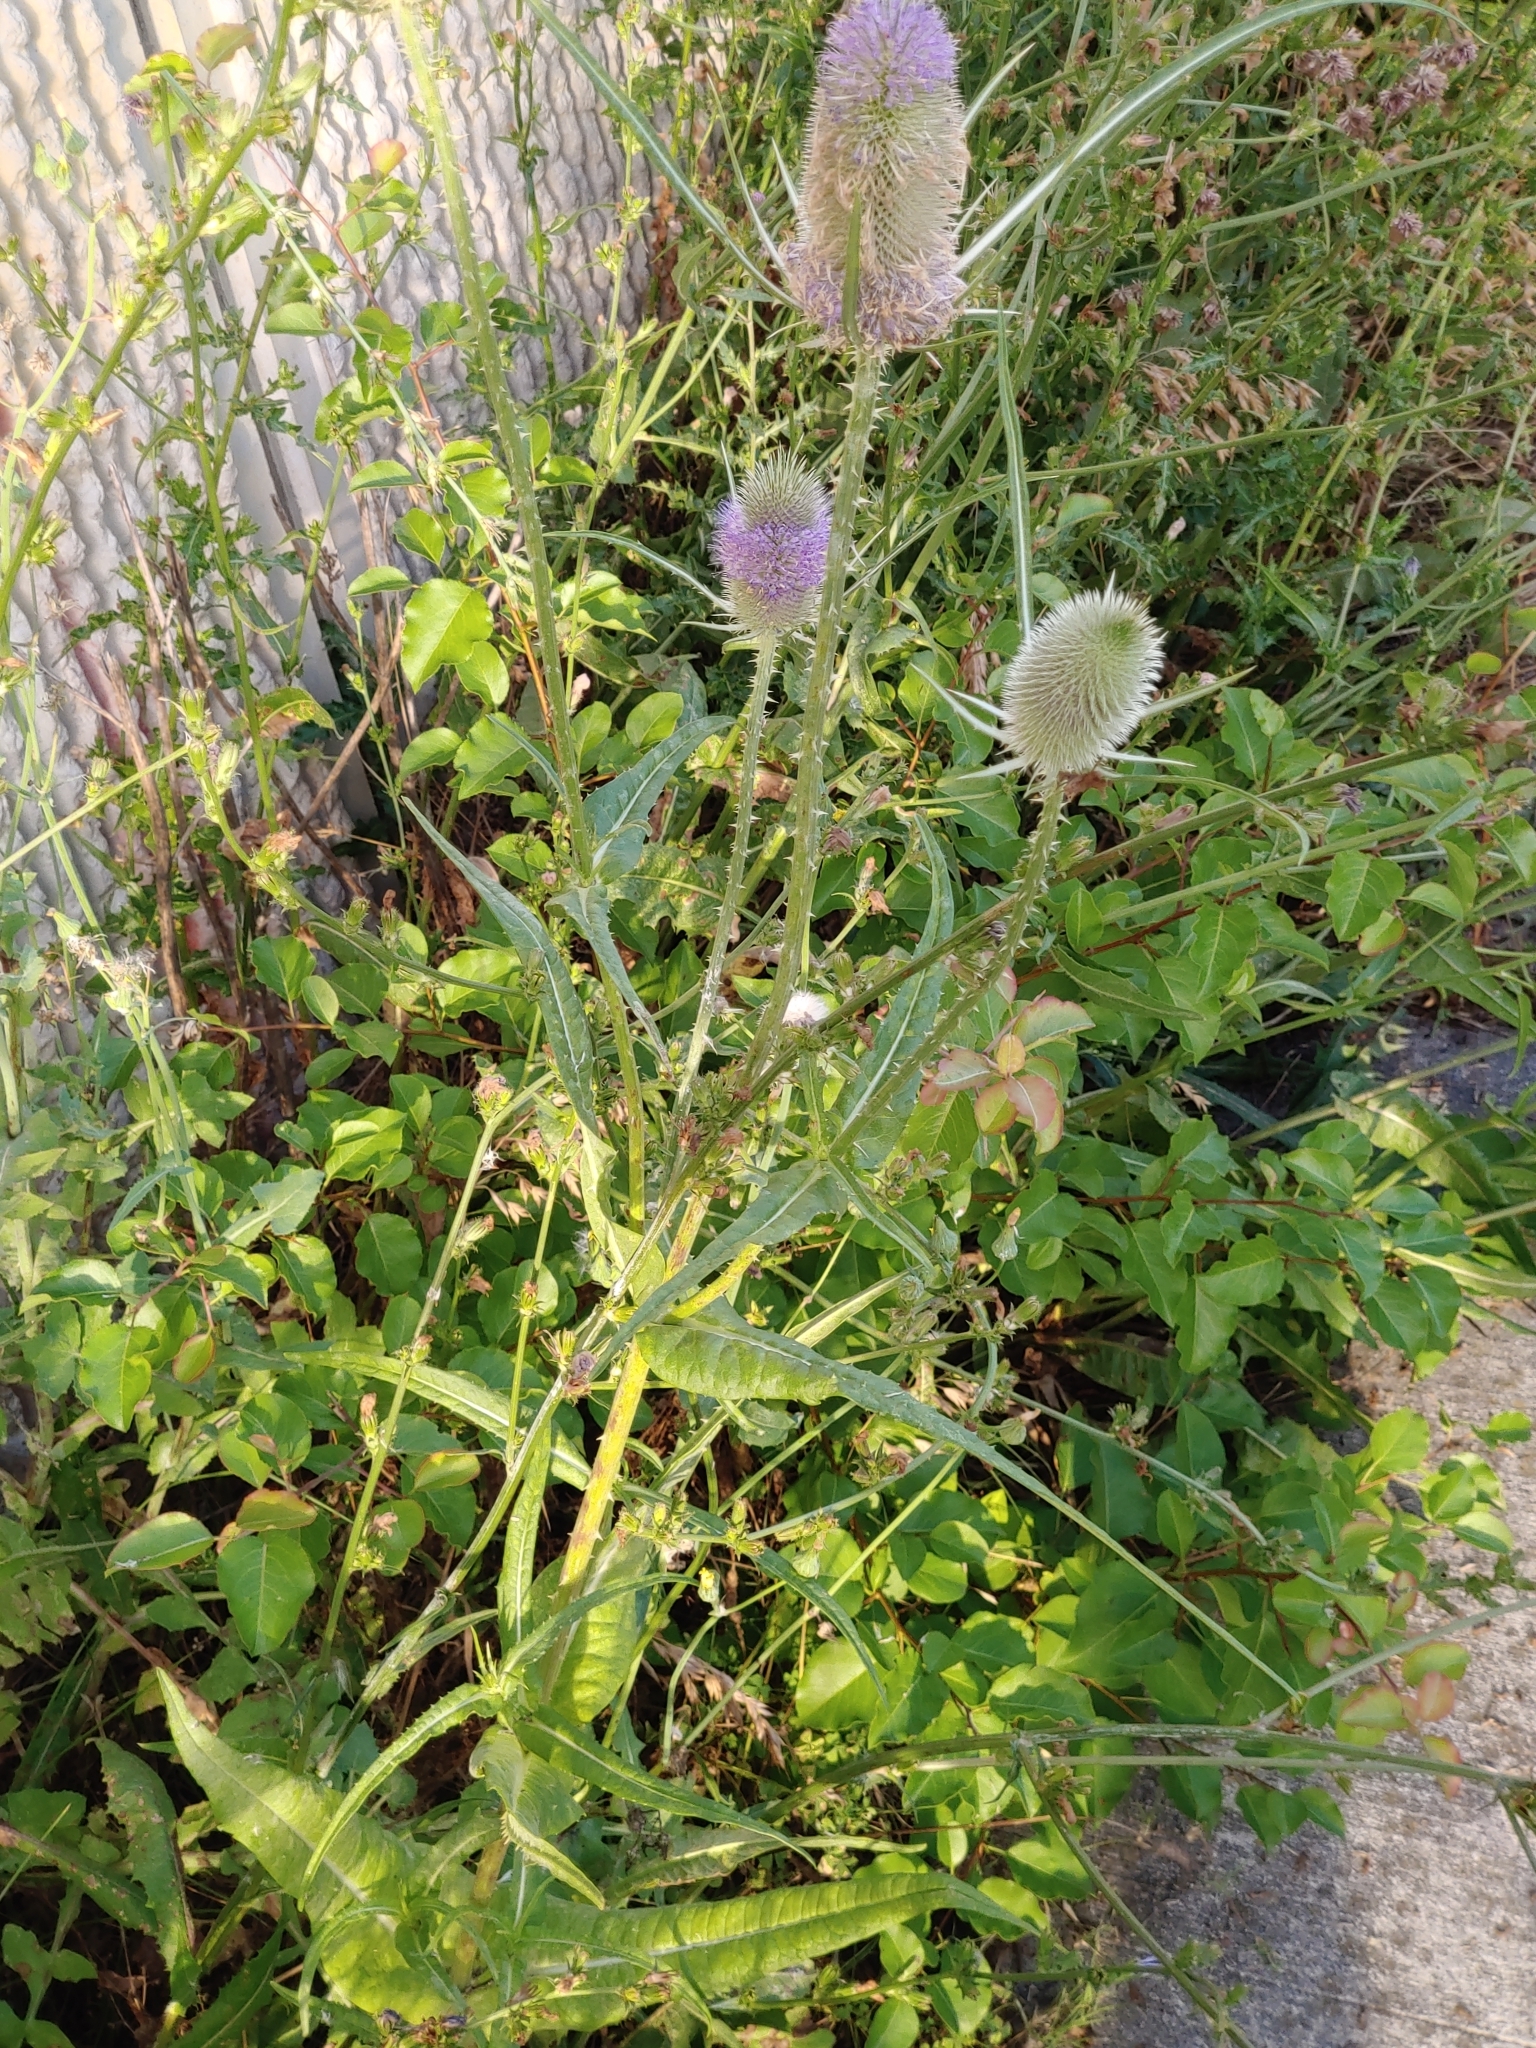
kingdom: Plantae
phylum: Tracheophyta
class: Magnoliopsida
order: Dipsacales
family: Caprifoliaceae
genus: Dipsacus
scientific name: Dipsacus fullonum
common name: Teasel
